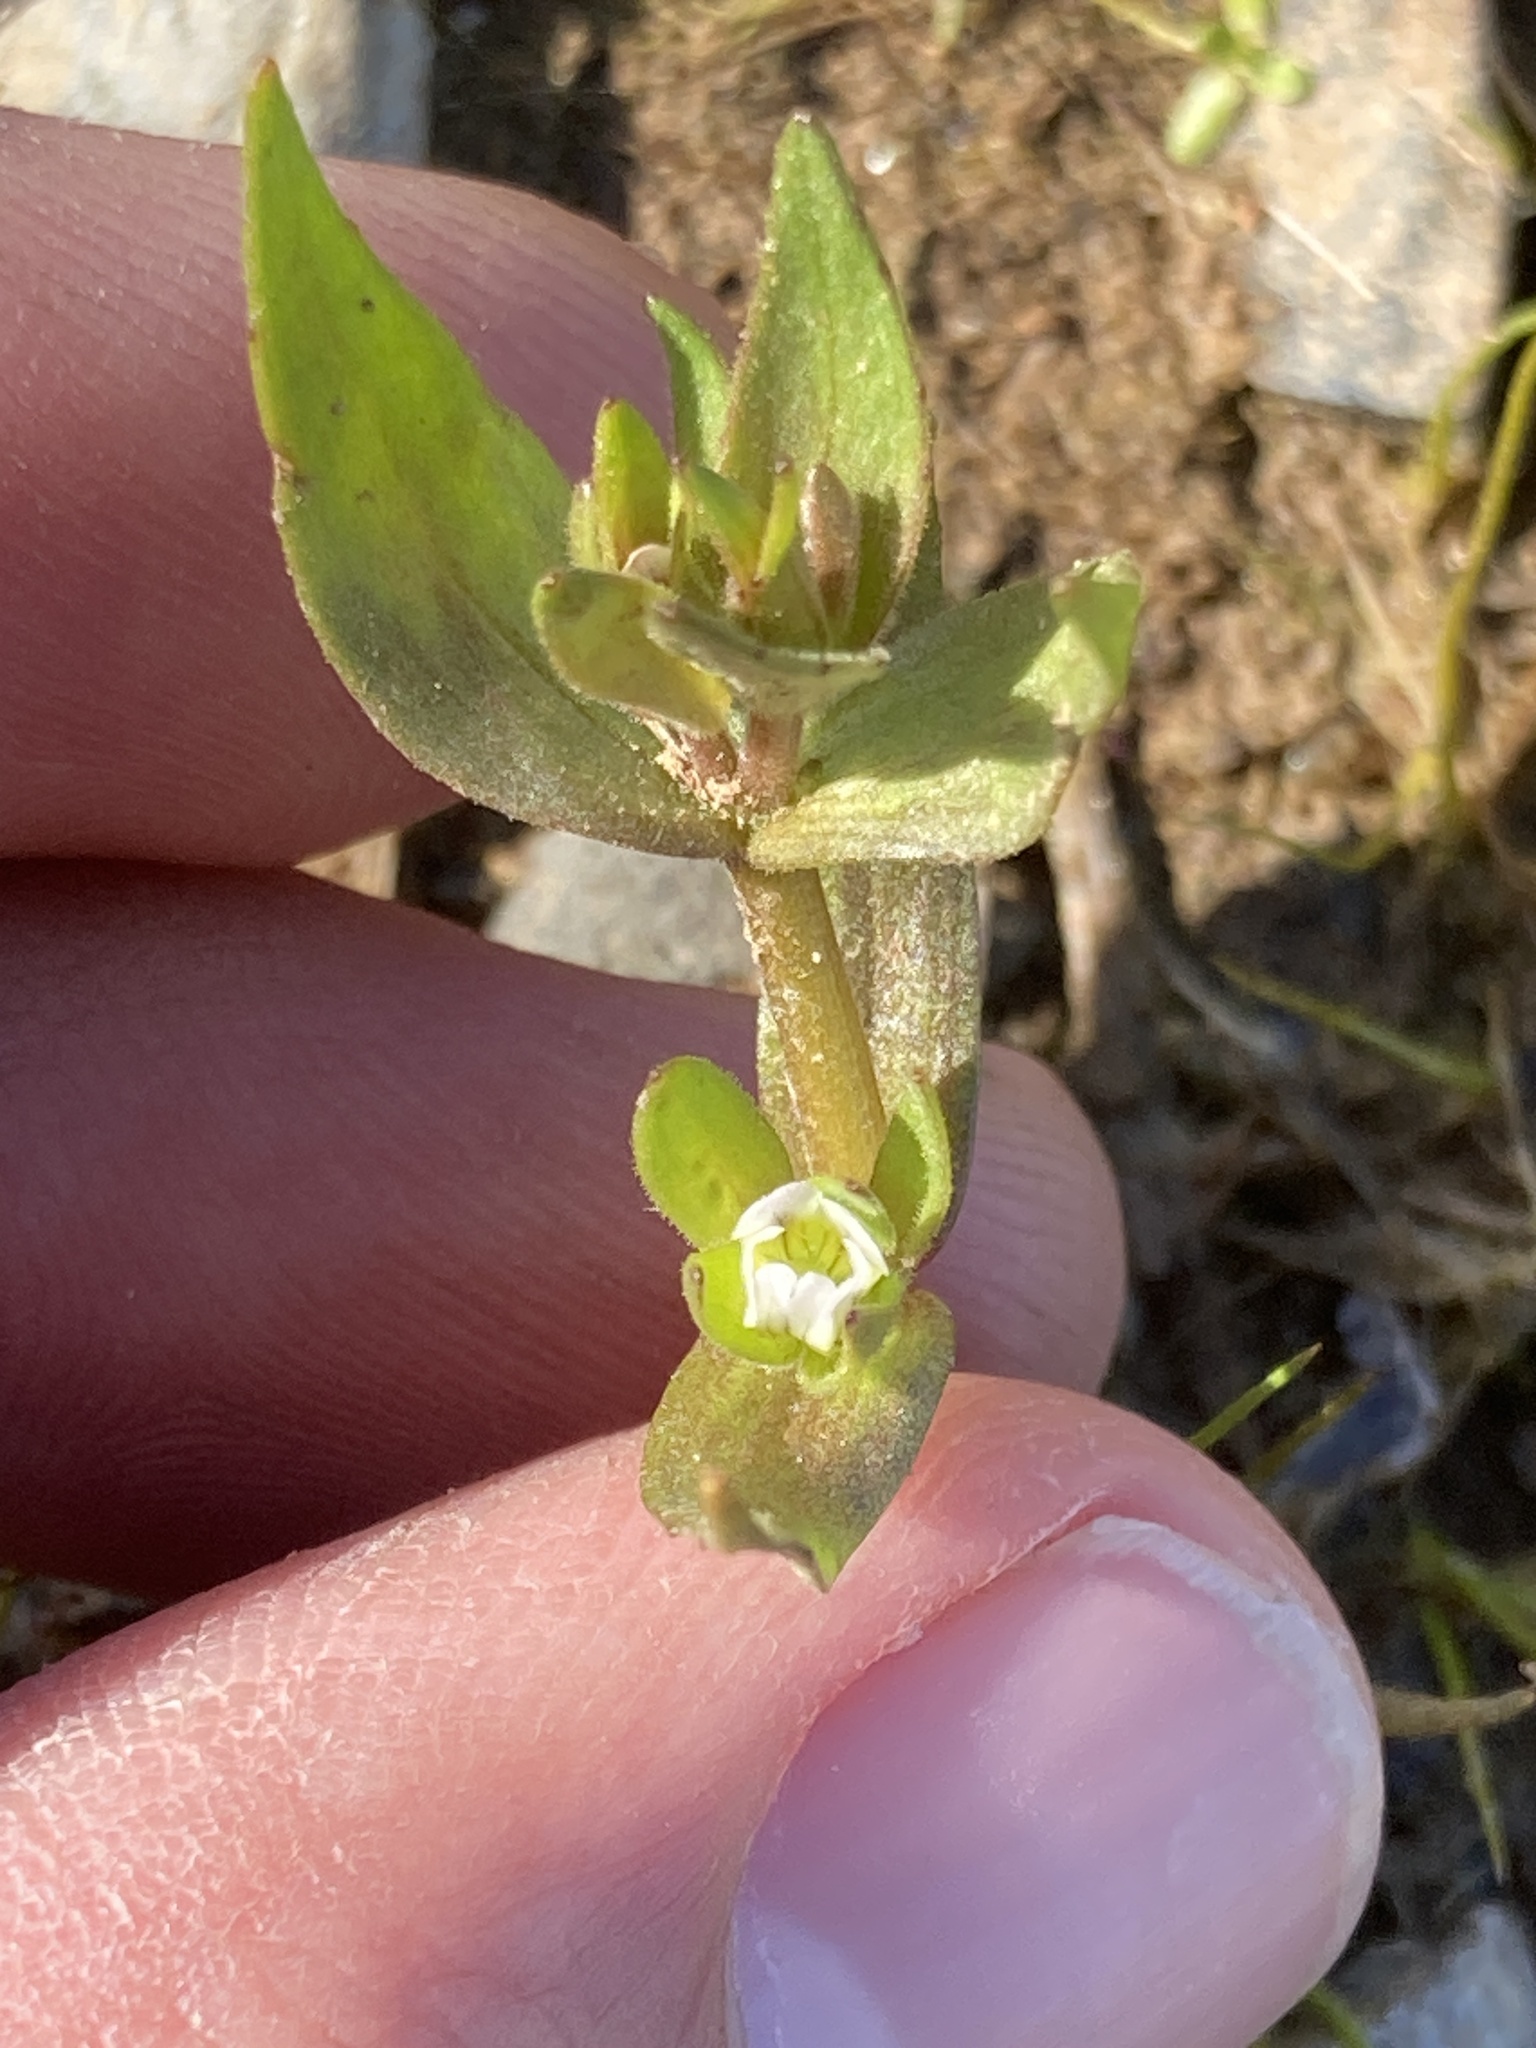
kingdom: Plantae
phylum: Tracheophyta
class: Magnoliopsida
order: Lamiales
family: Plantaginaceae
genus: Gratiola
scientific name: Gratiola ebracteata
